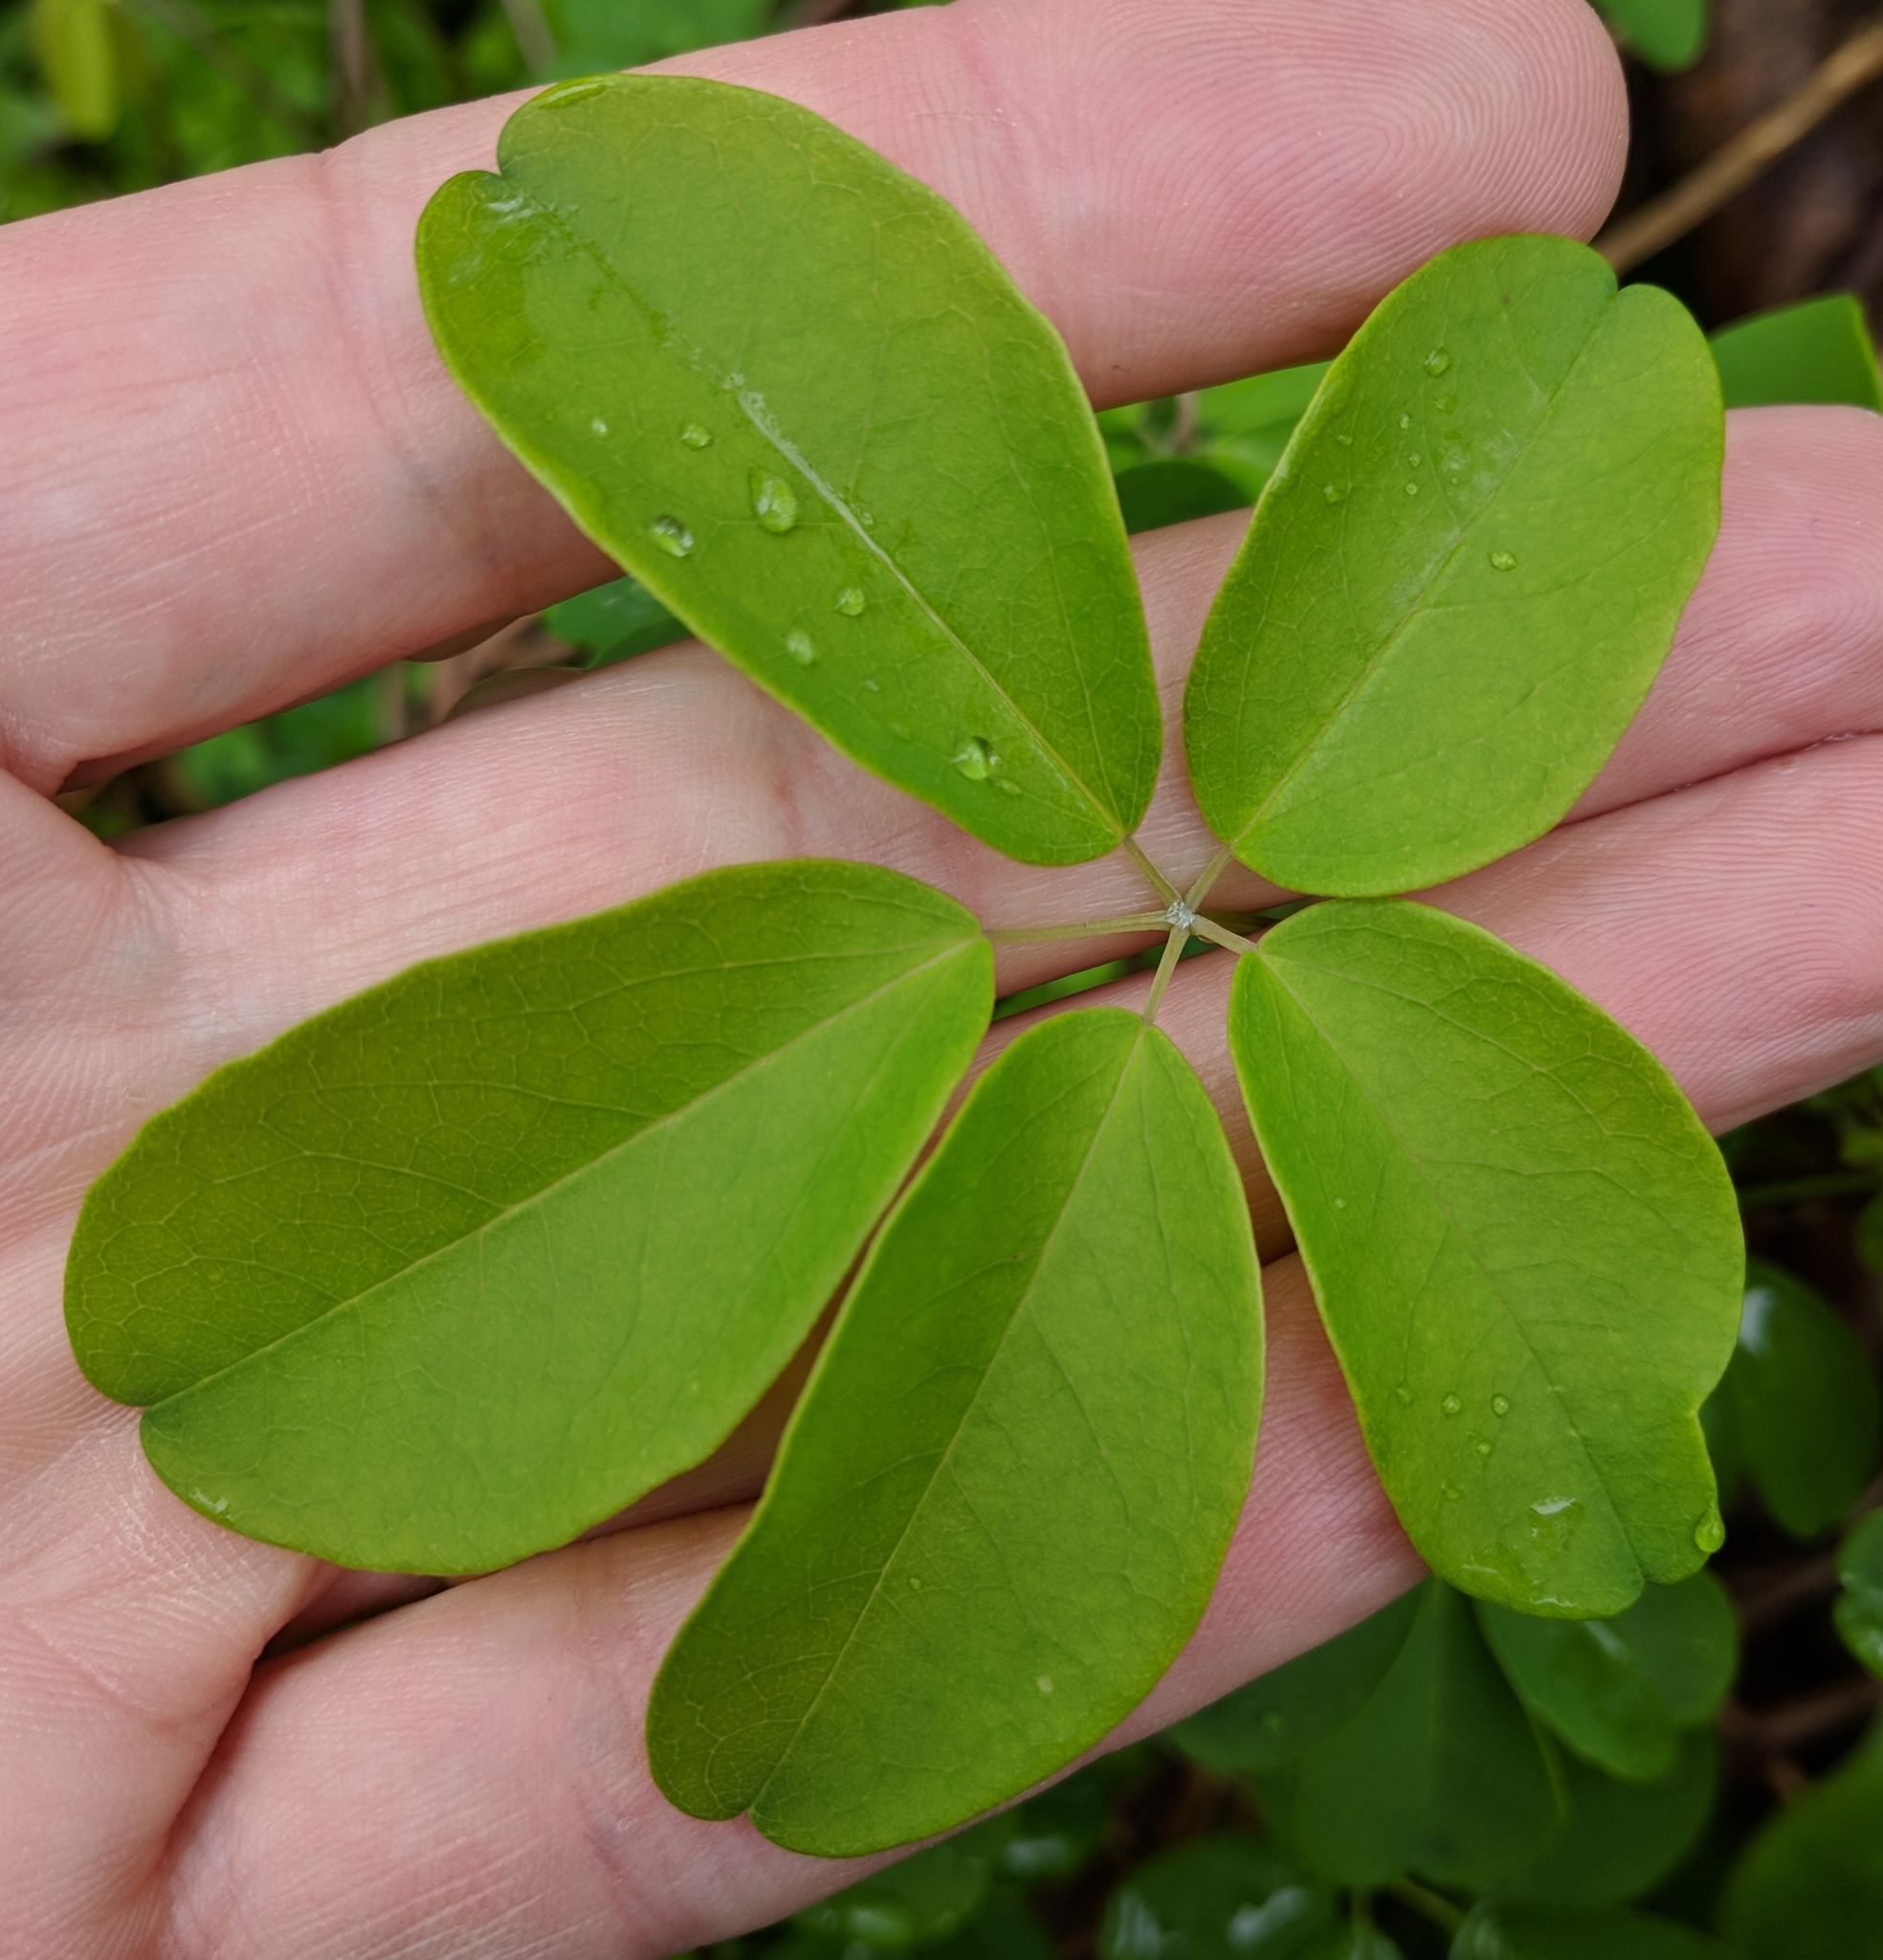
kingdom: Plantae
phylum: Tracheophyta
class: Magnoliopsida
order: Ranunculales
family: Lardizabalaceae
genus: Akebia
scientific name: Akebia quinata
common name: Five-leaf akebia
